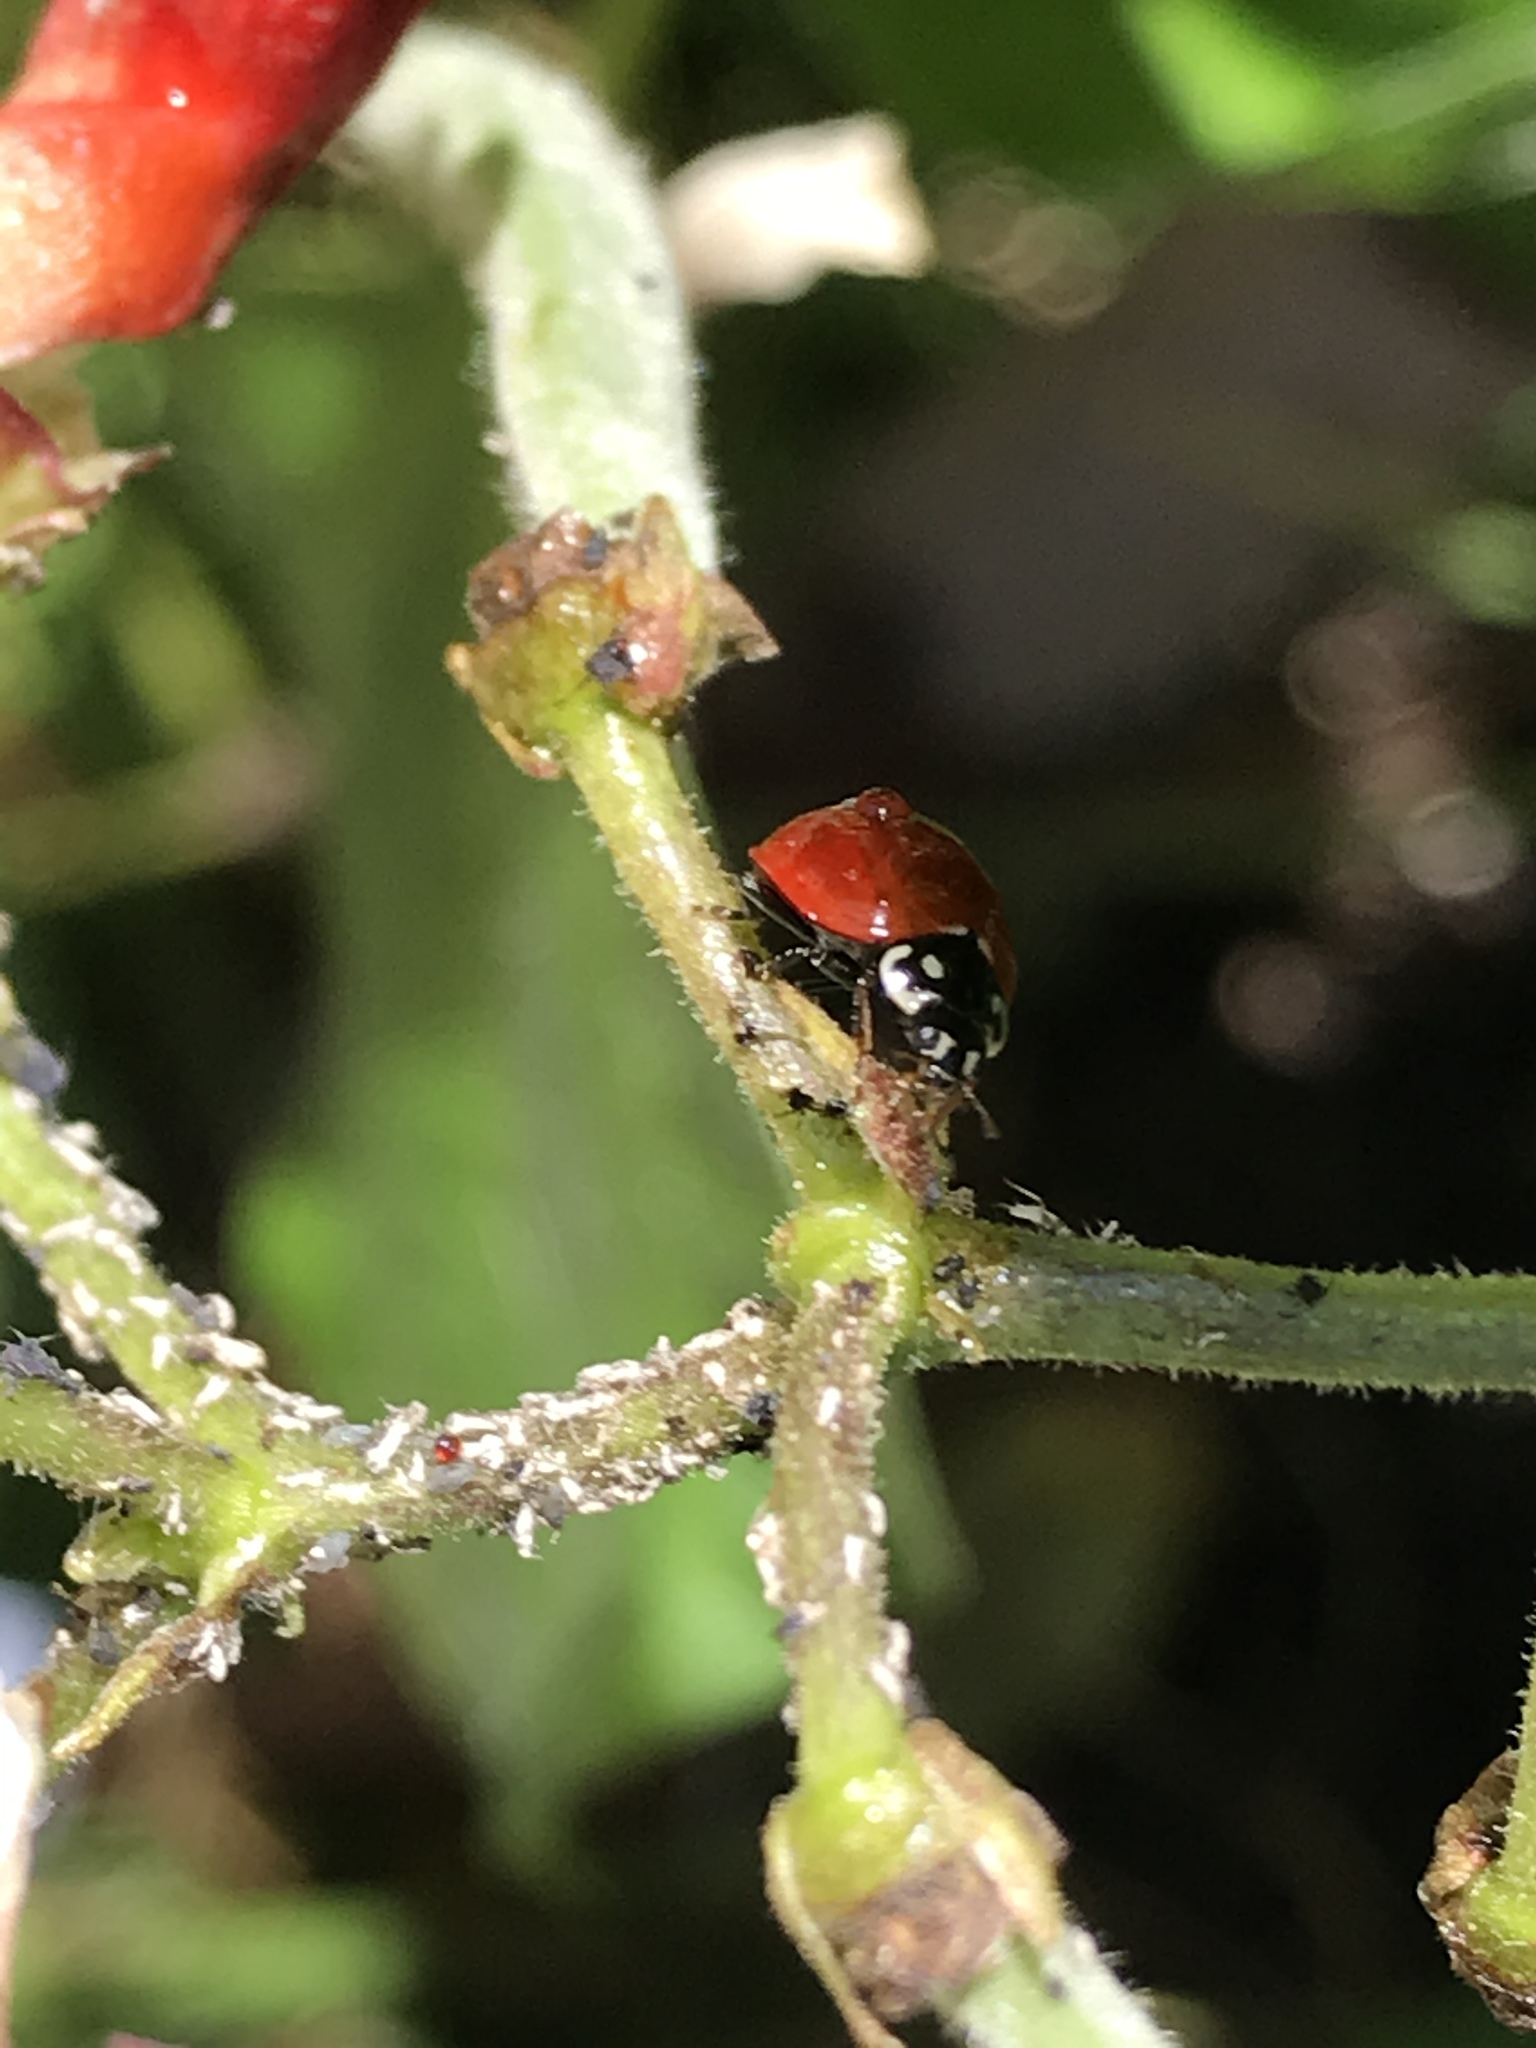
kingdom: Animalia
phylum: Arthropoda
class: Insecta
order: Coleoptera
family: Coccinellidae
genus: Cycloneda
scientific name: Cycloneda sanguinea
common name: Ladybird beetle
